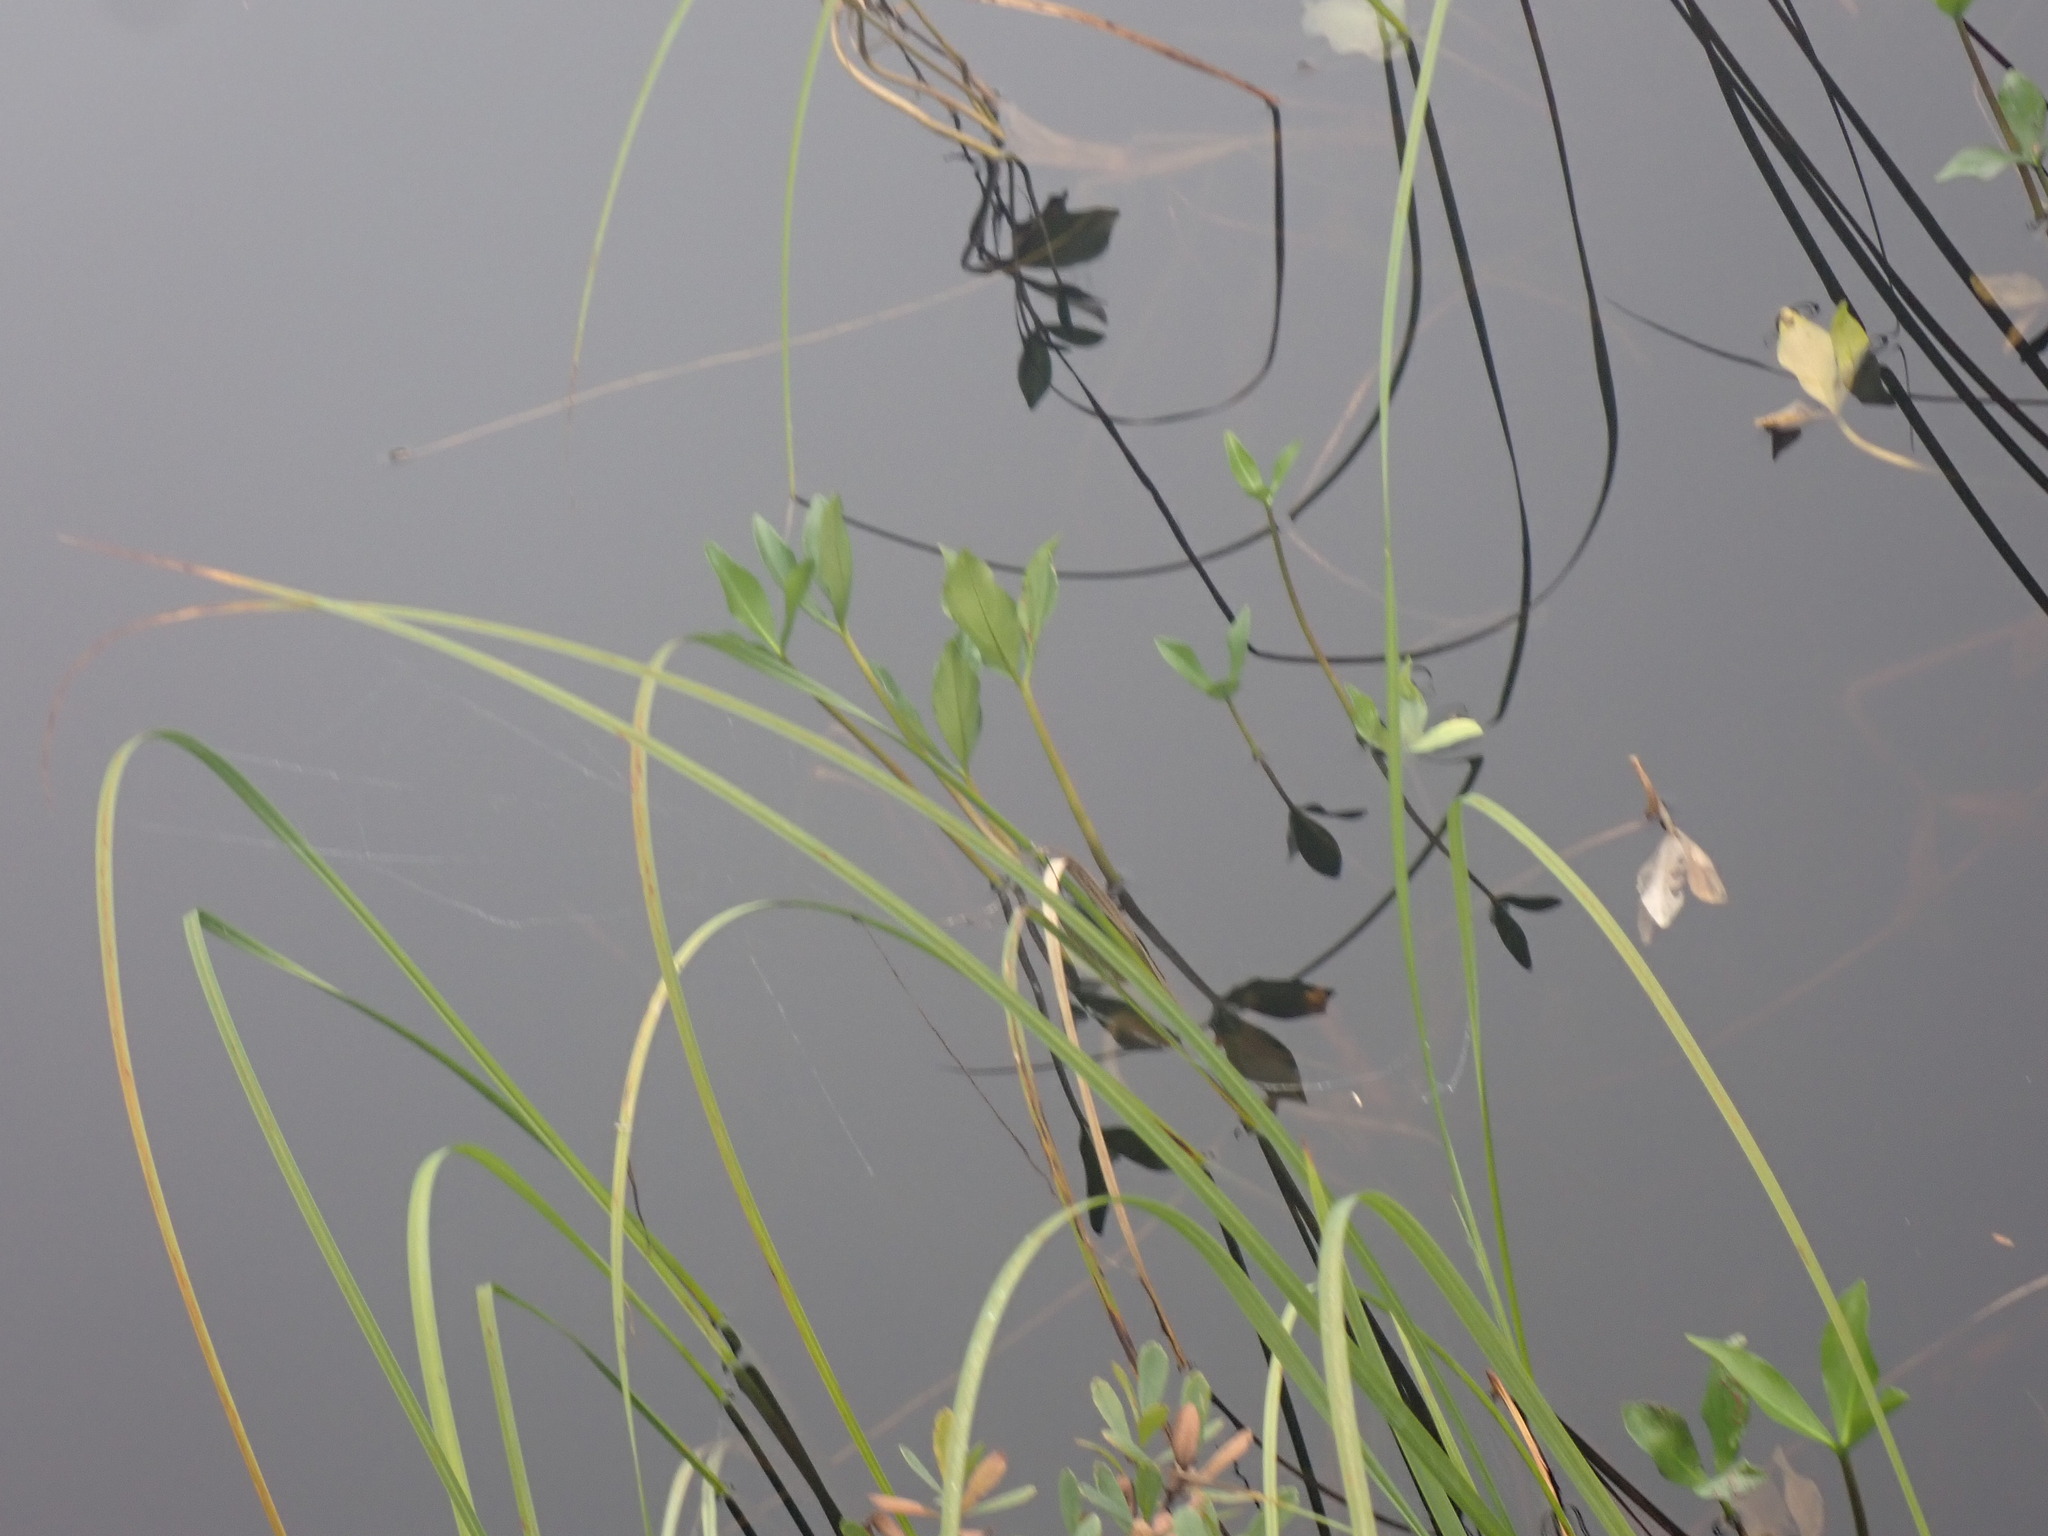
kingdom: Plantae
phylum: Tracheophyta
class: Magnoliopsida
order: Asterales
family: Menyanthaceae
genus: Menyanthes
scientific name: Menyanthes trifoliata
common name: Bogbean
